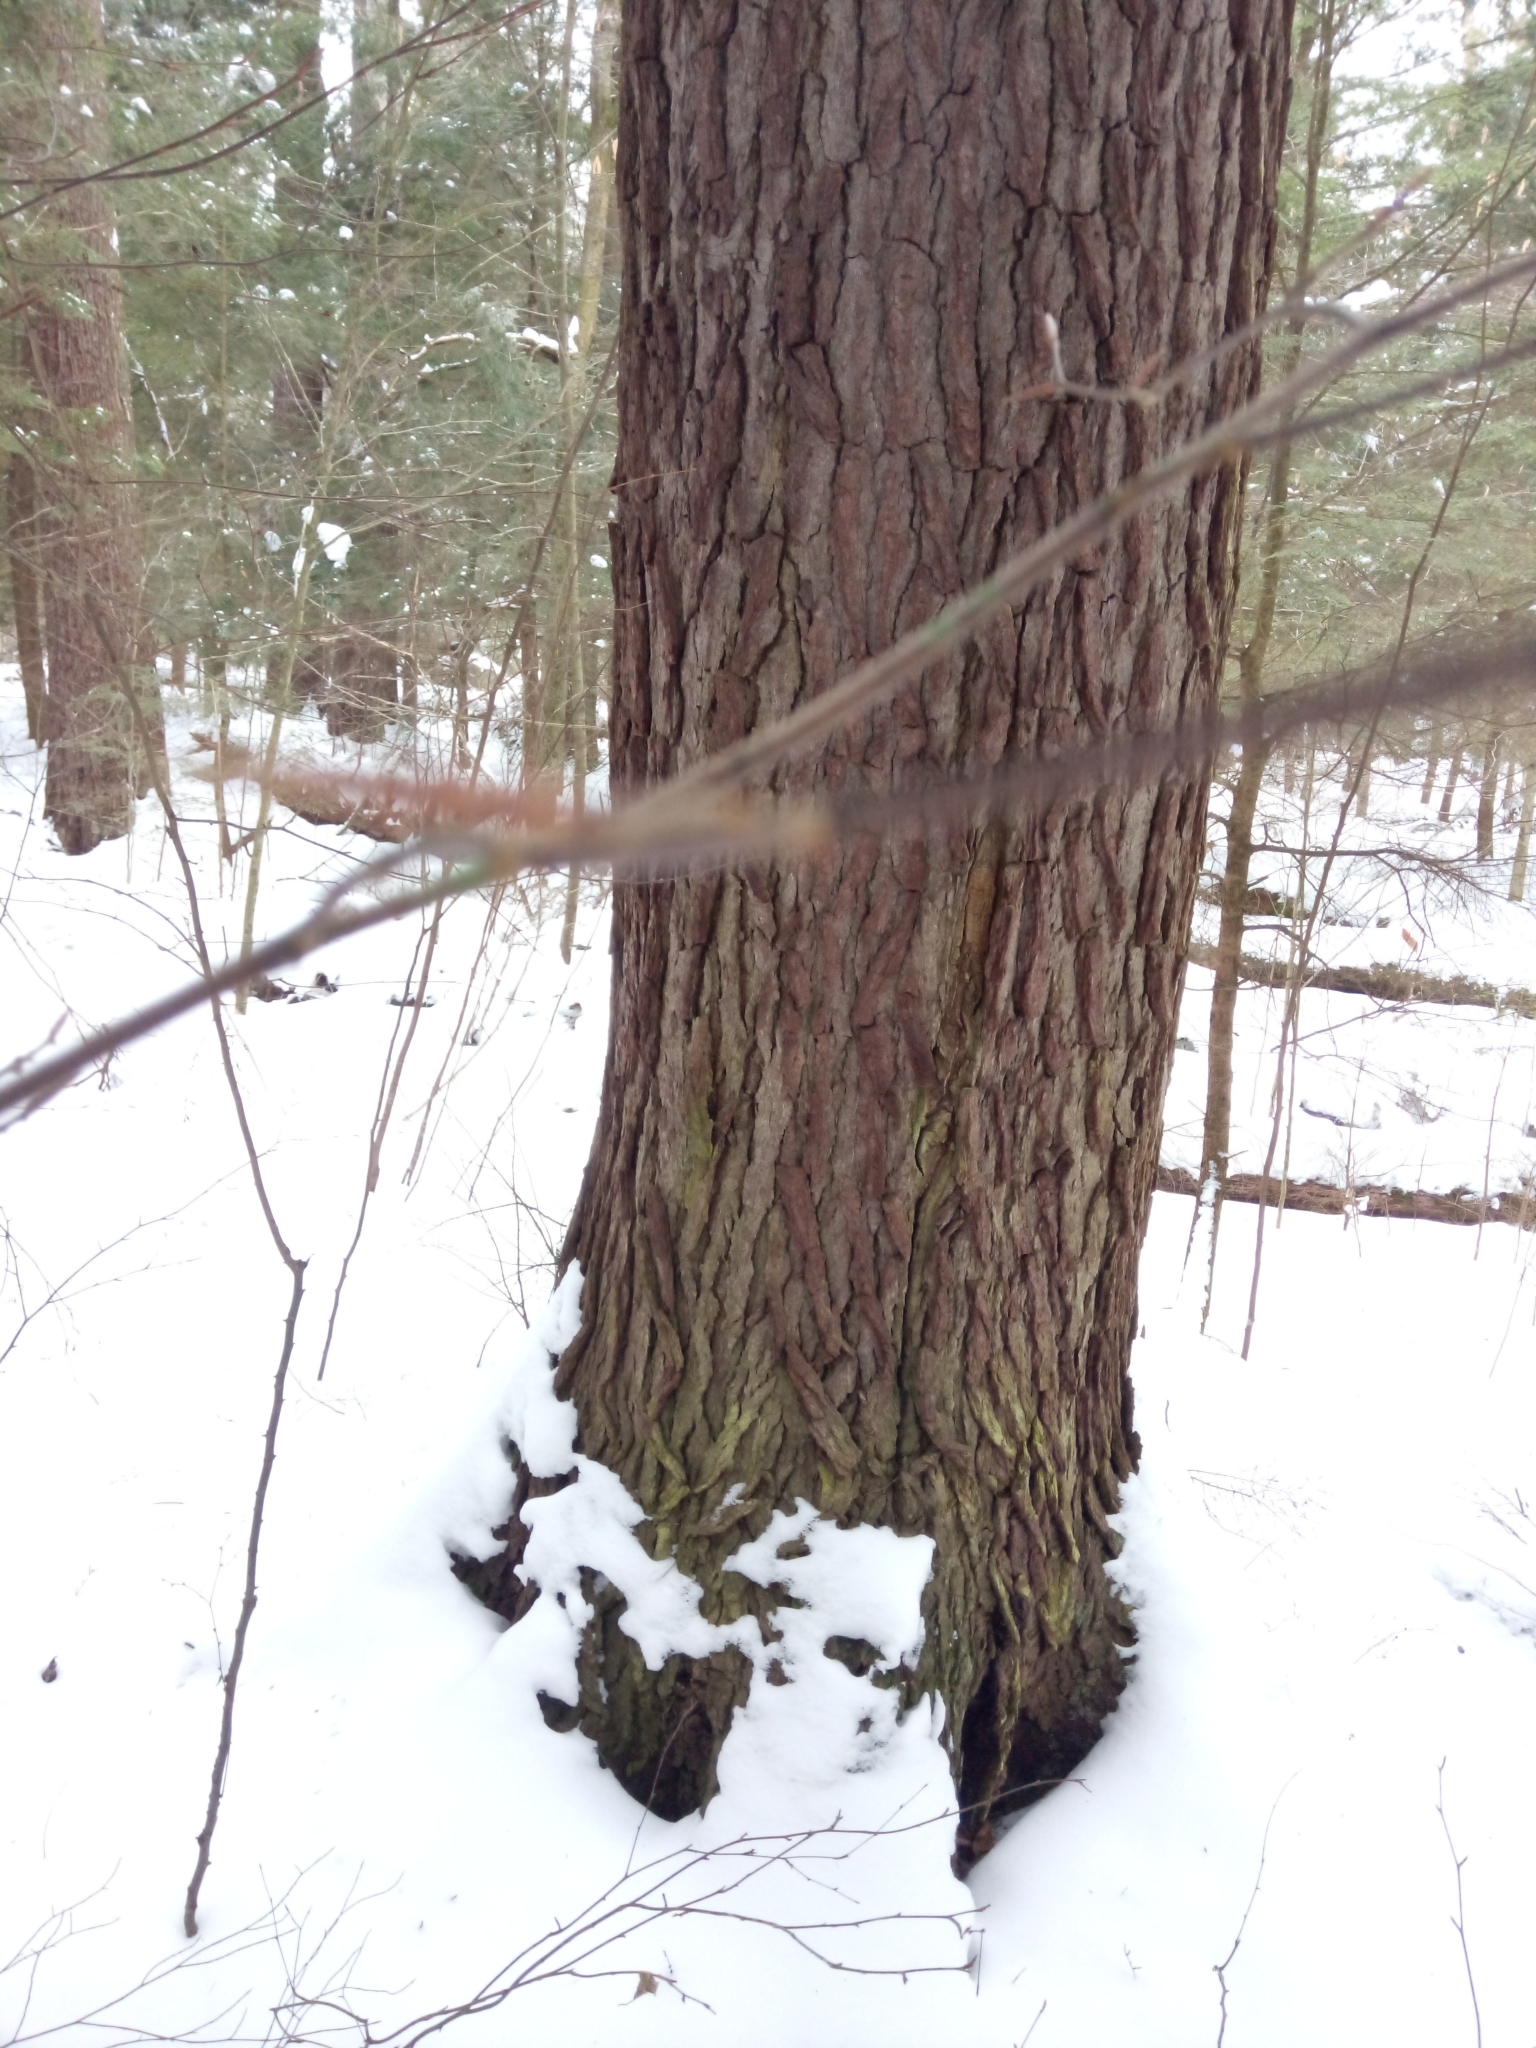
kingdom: Plantae
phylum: Tracheophyta
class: Pinopsida
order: Pinales
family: Pinaceae
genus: Tsuga
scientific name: Tsuga canadensis
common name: Eastern hemlock
